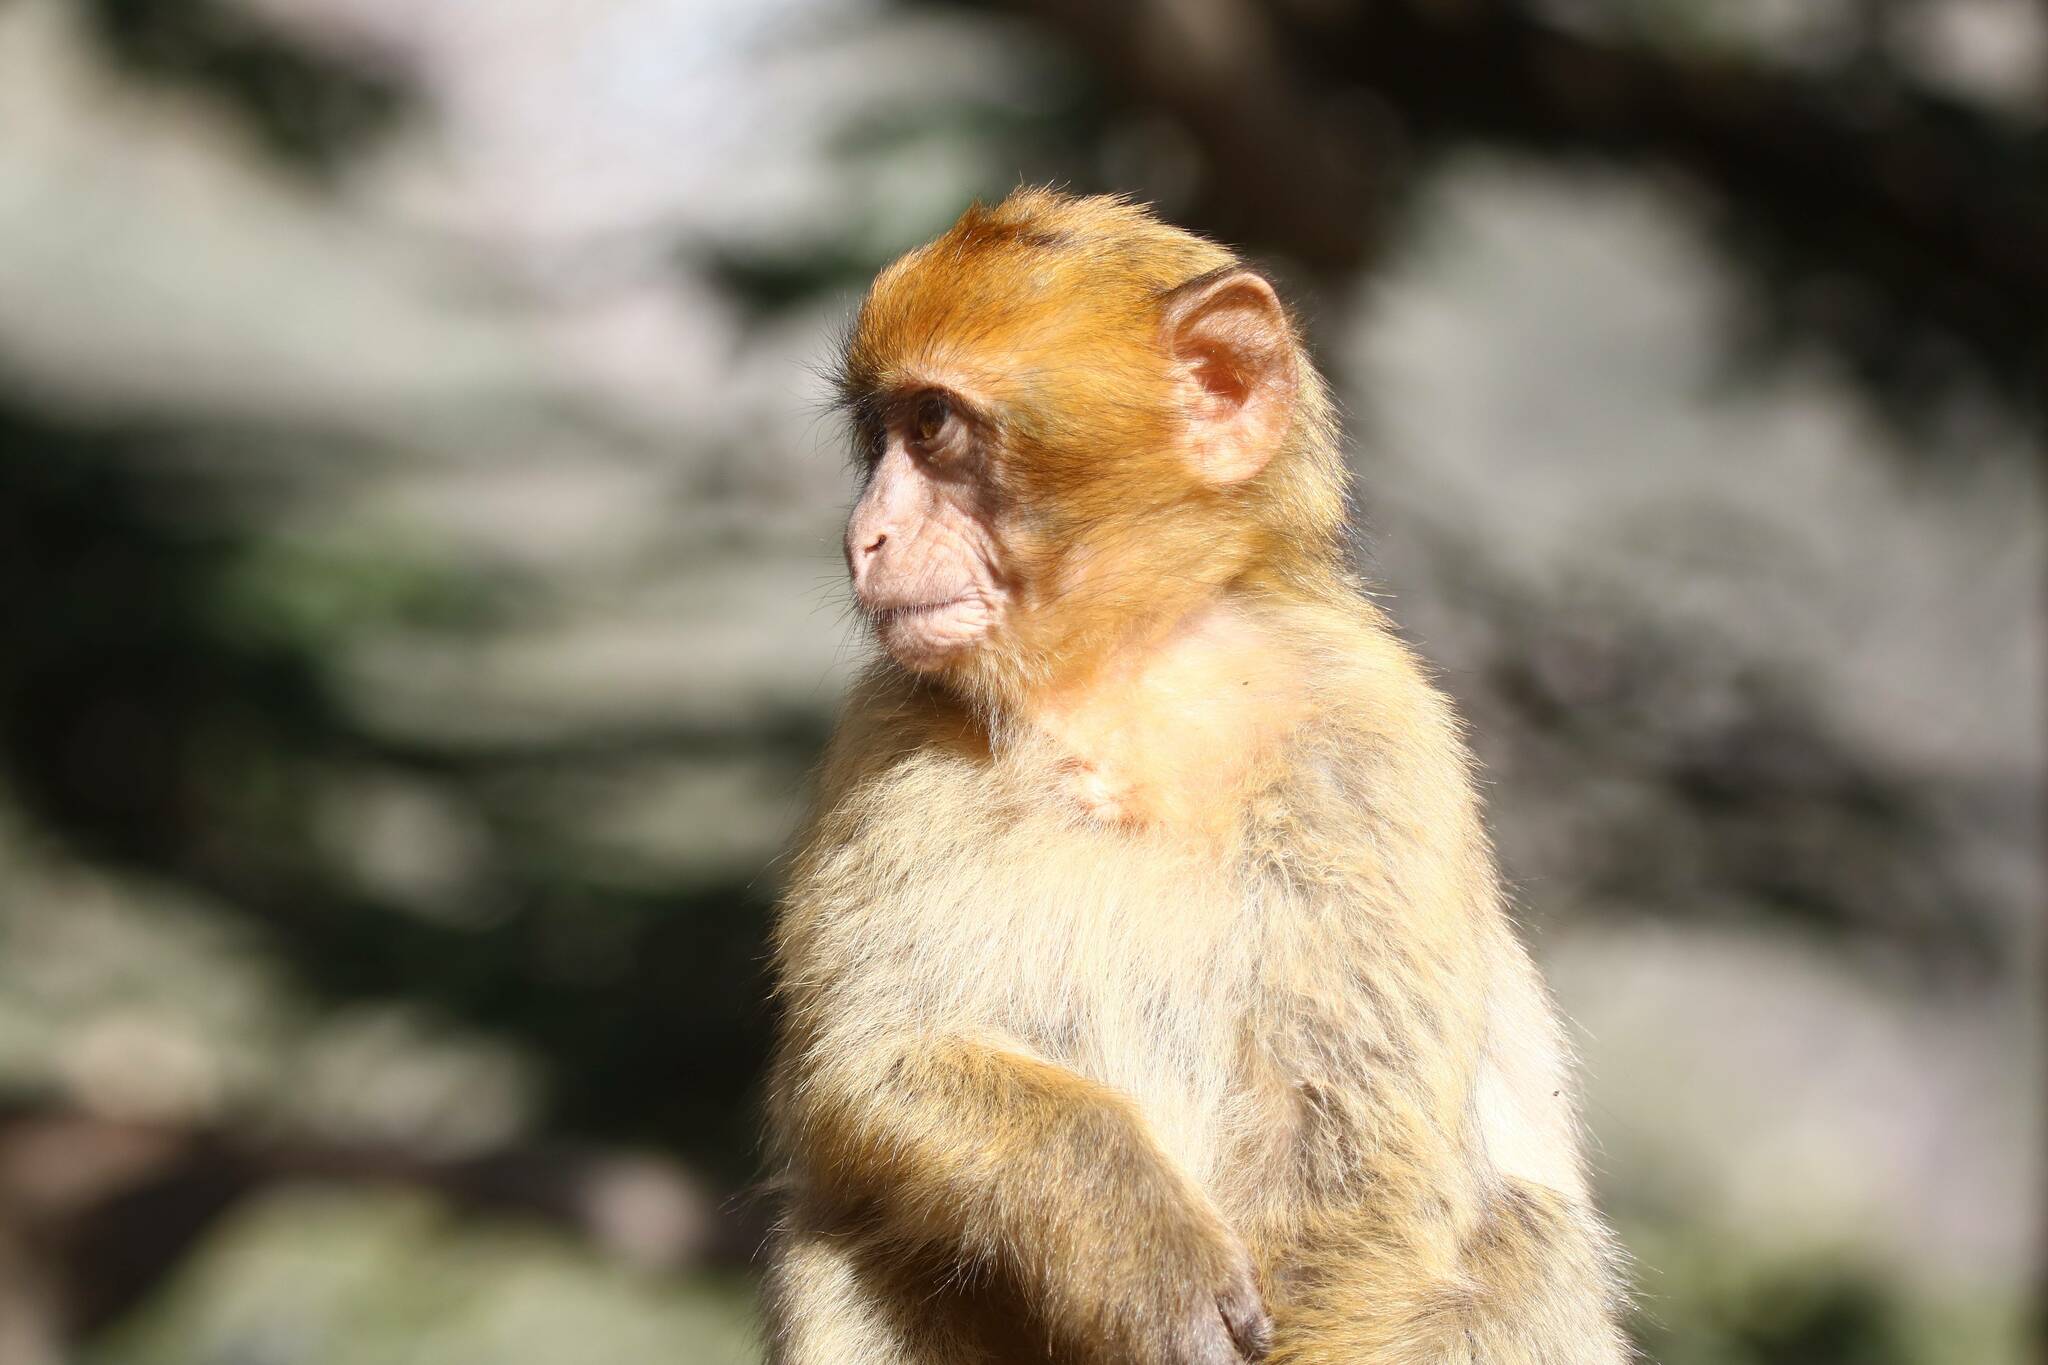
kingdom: Animalia
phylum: Chordata
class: Mammalia
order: Primates
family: Cercopithecidae
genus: Macaca
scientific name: Macaca sylvanus
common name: Barbary macaque
